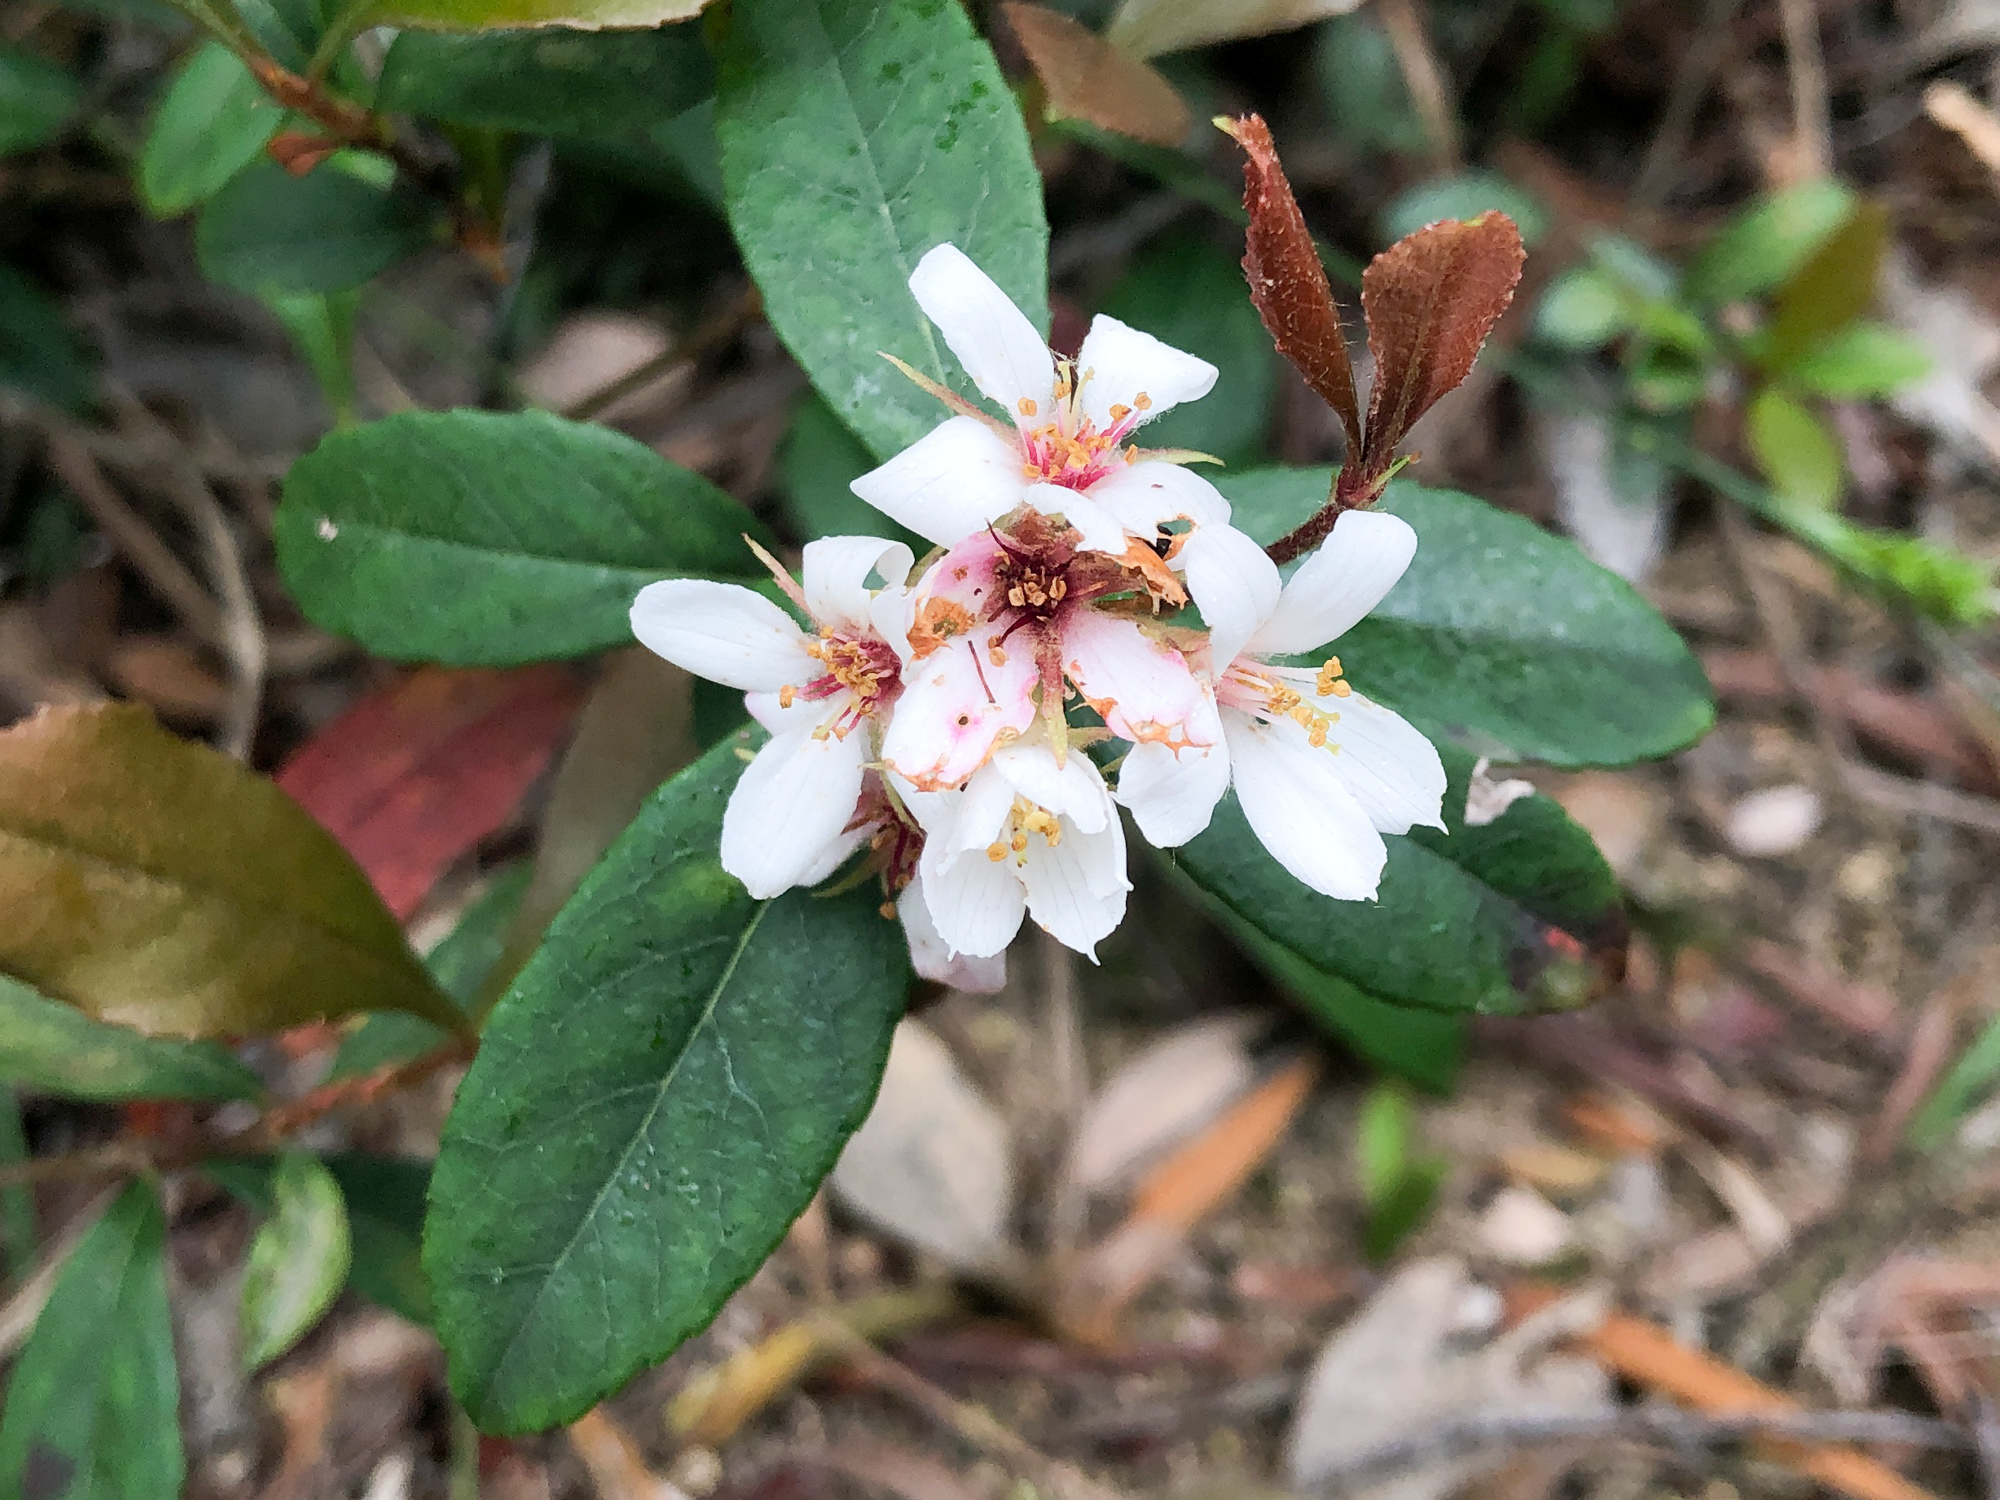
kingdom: Plantae
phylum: Tracheophyta
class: Magnoliopsida
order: Rosales
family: Rosaceae
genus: Rhaphiolepis
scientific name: Rhaphiolepis indica
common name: India-hawthorn
